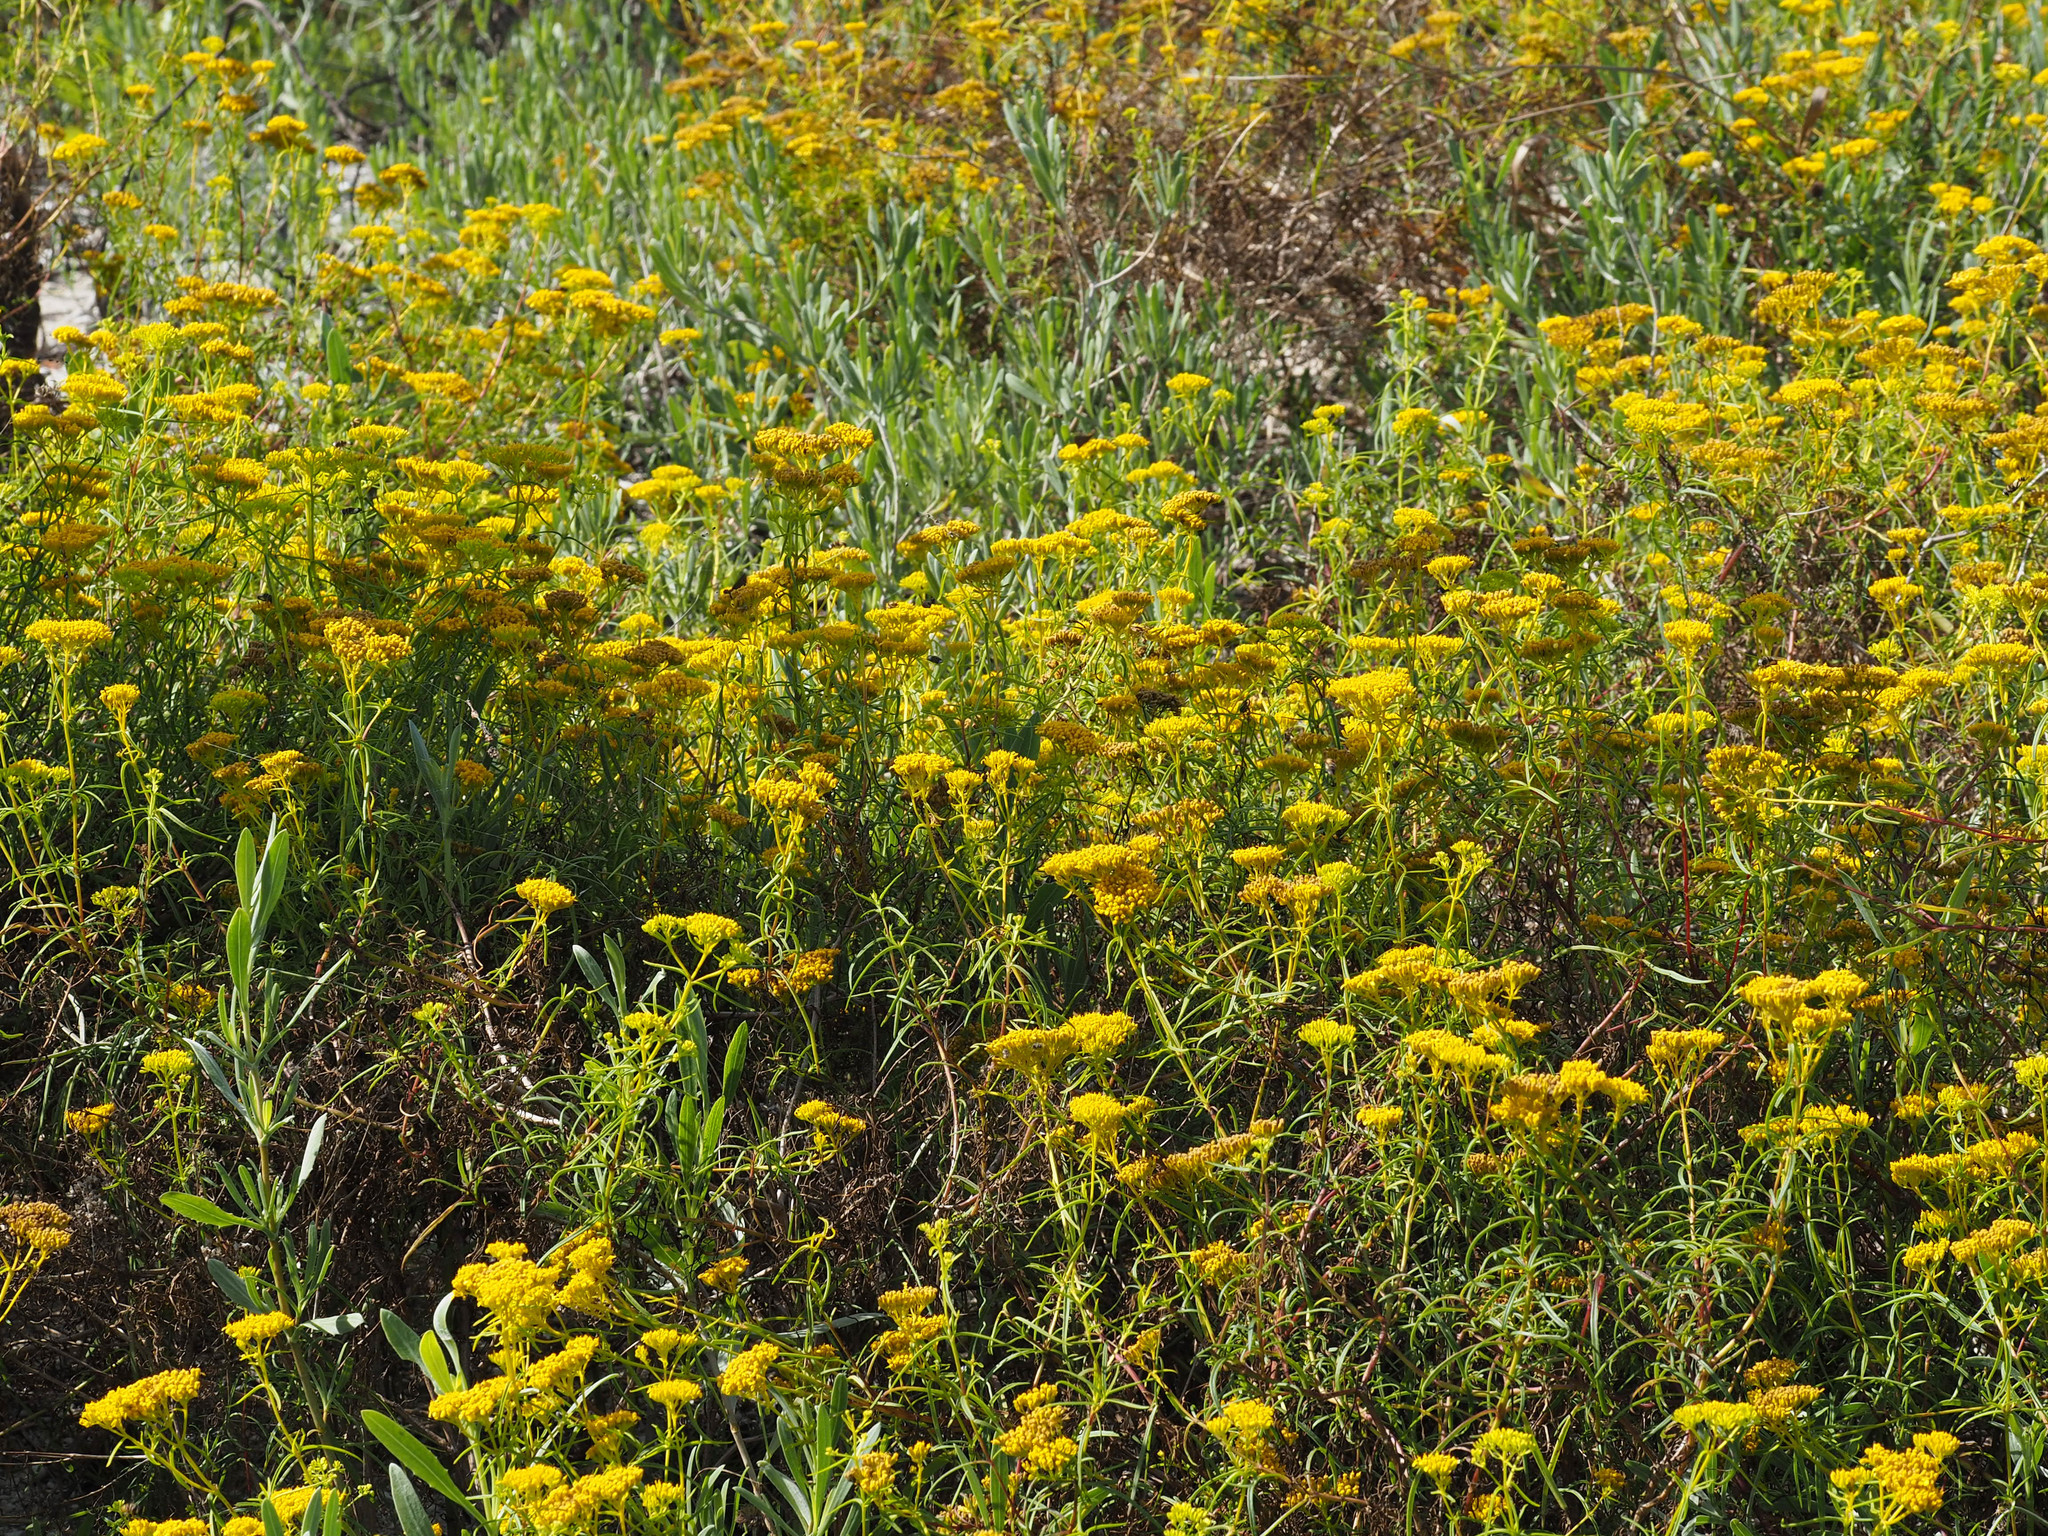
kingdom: Plantae
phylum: Tracheophyta
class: Magnoliopsida
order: Asterales
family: Asteraceae
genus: Flaveria
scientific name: Flaveria linearis
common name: Yellowtop
